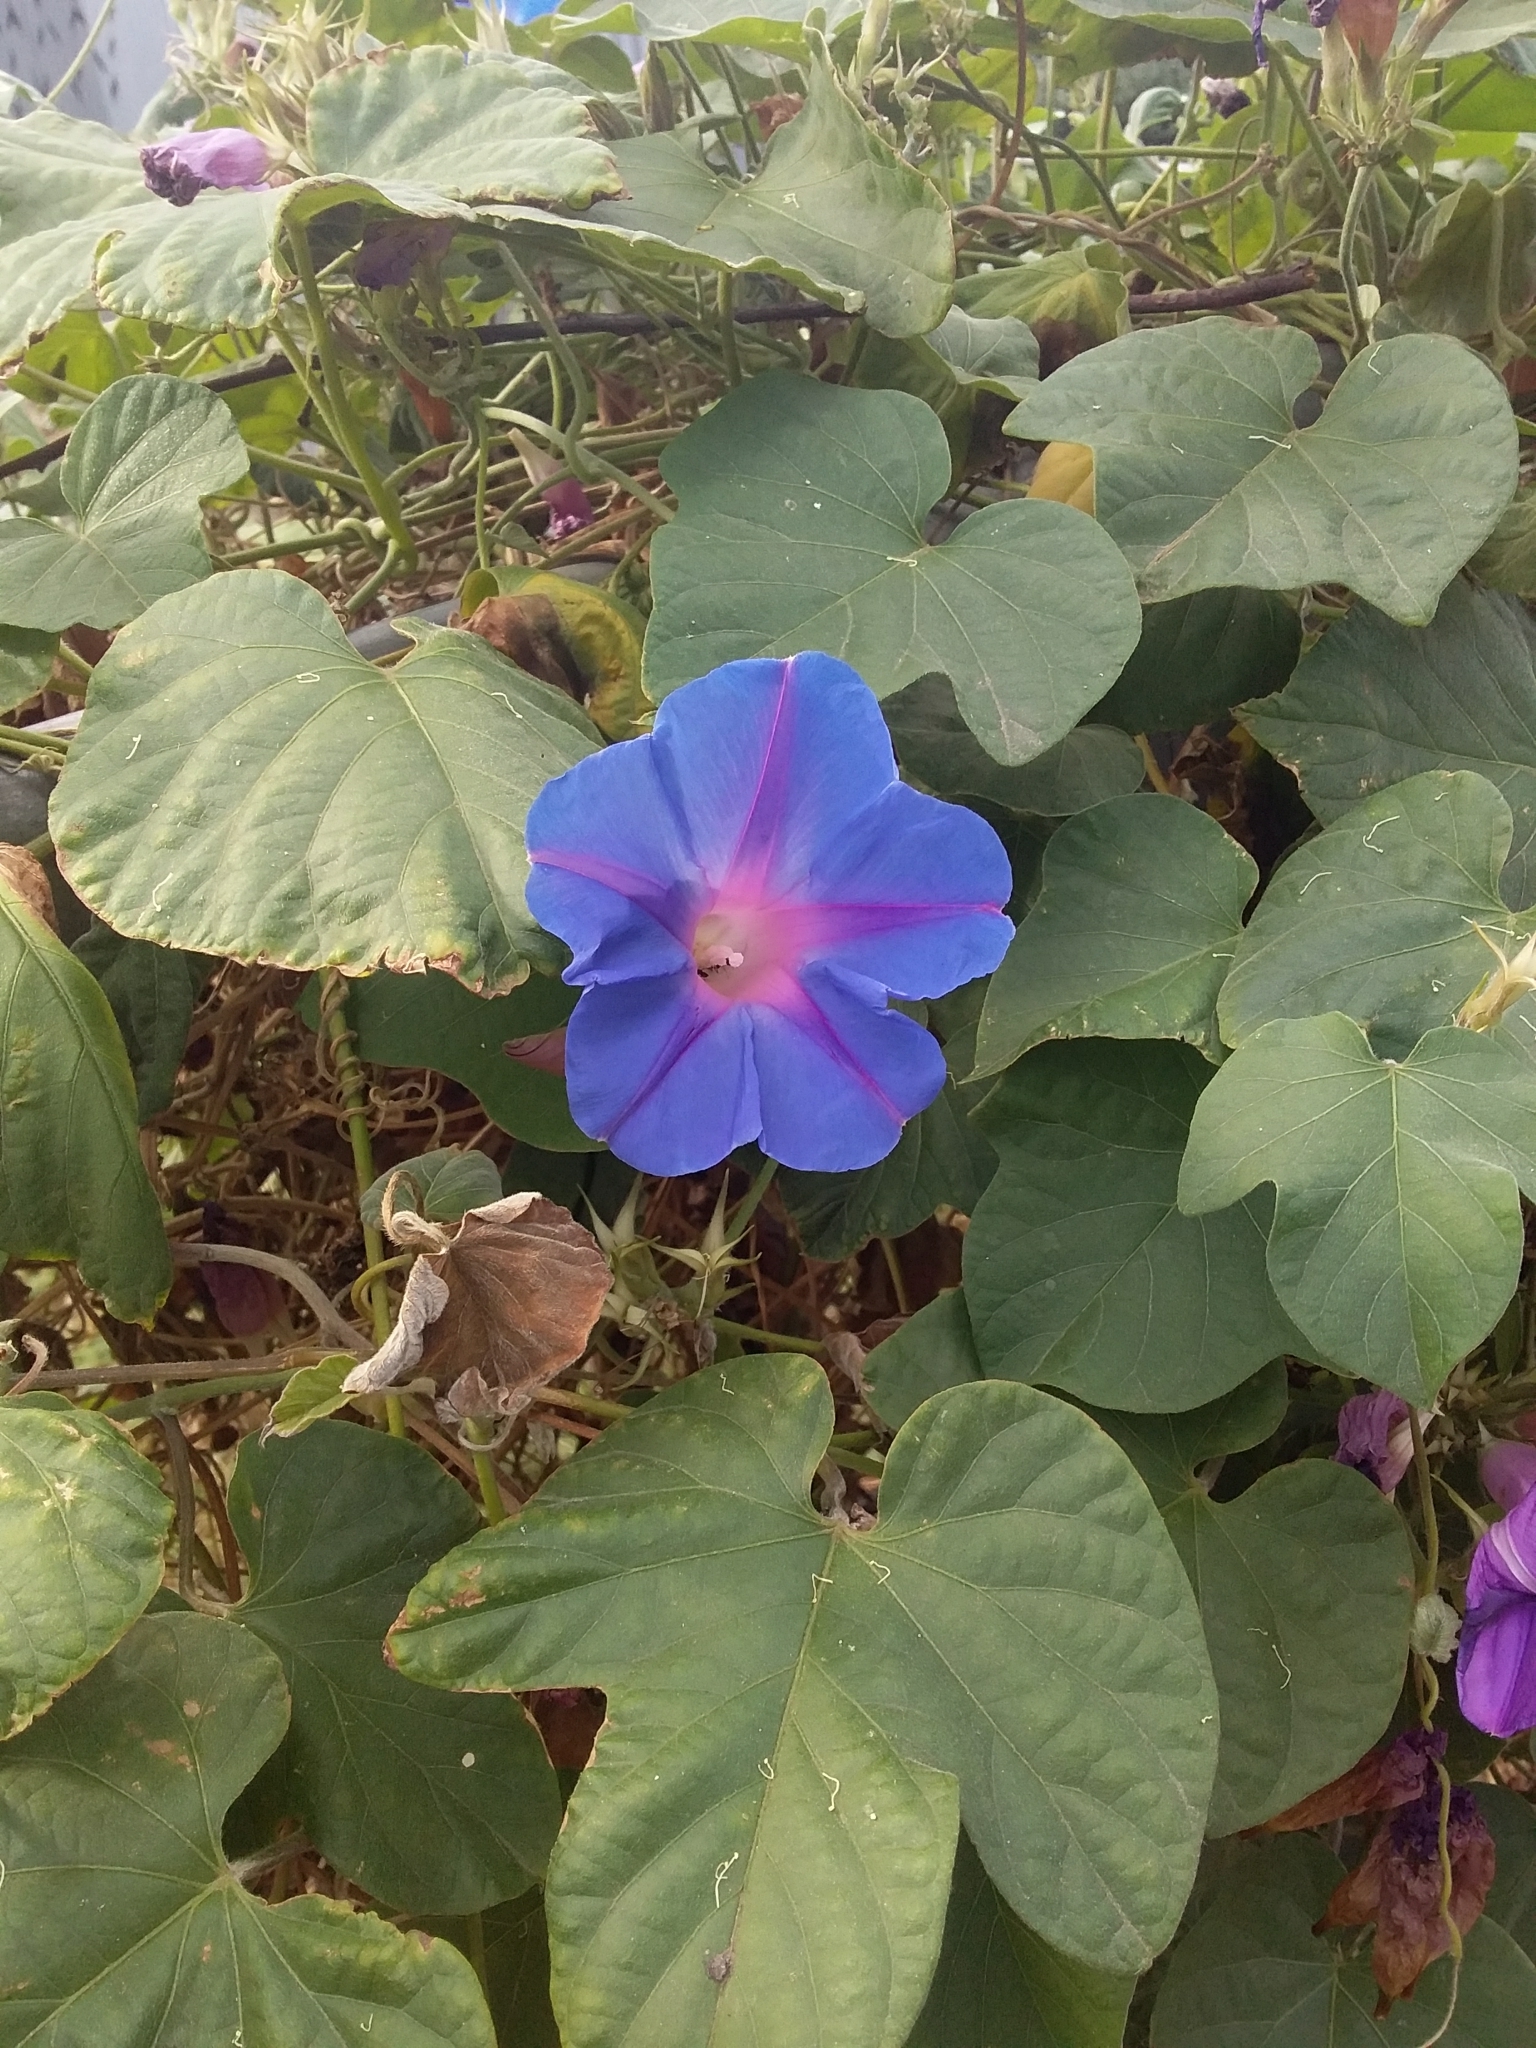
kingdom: Plantae
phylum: Tracheophyta
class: Magnoliopsida
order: Solanales
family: Convolvulaceae
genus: Ipomoea
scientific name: Ipomoea indica
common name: Blue dawnflower
